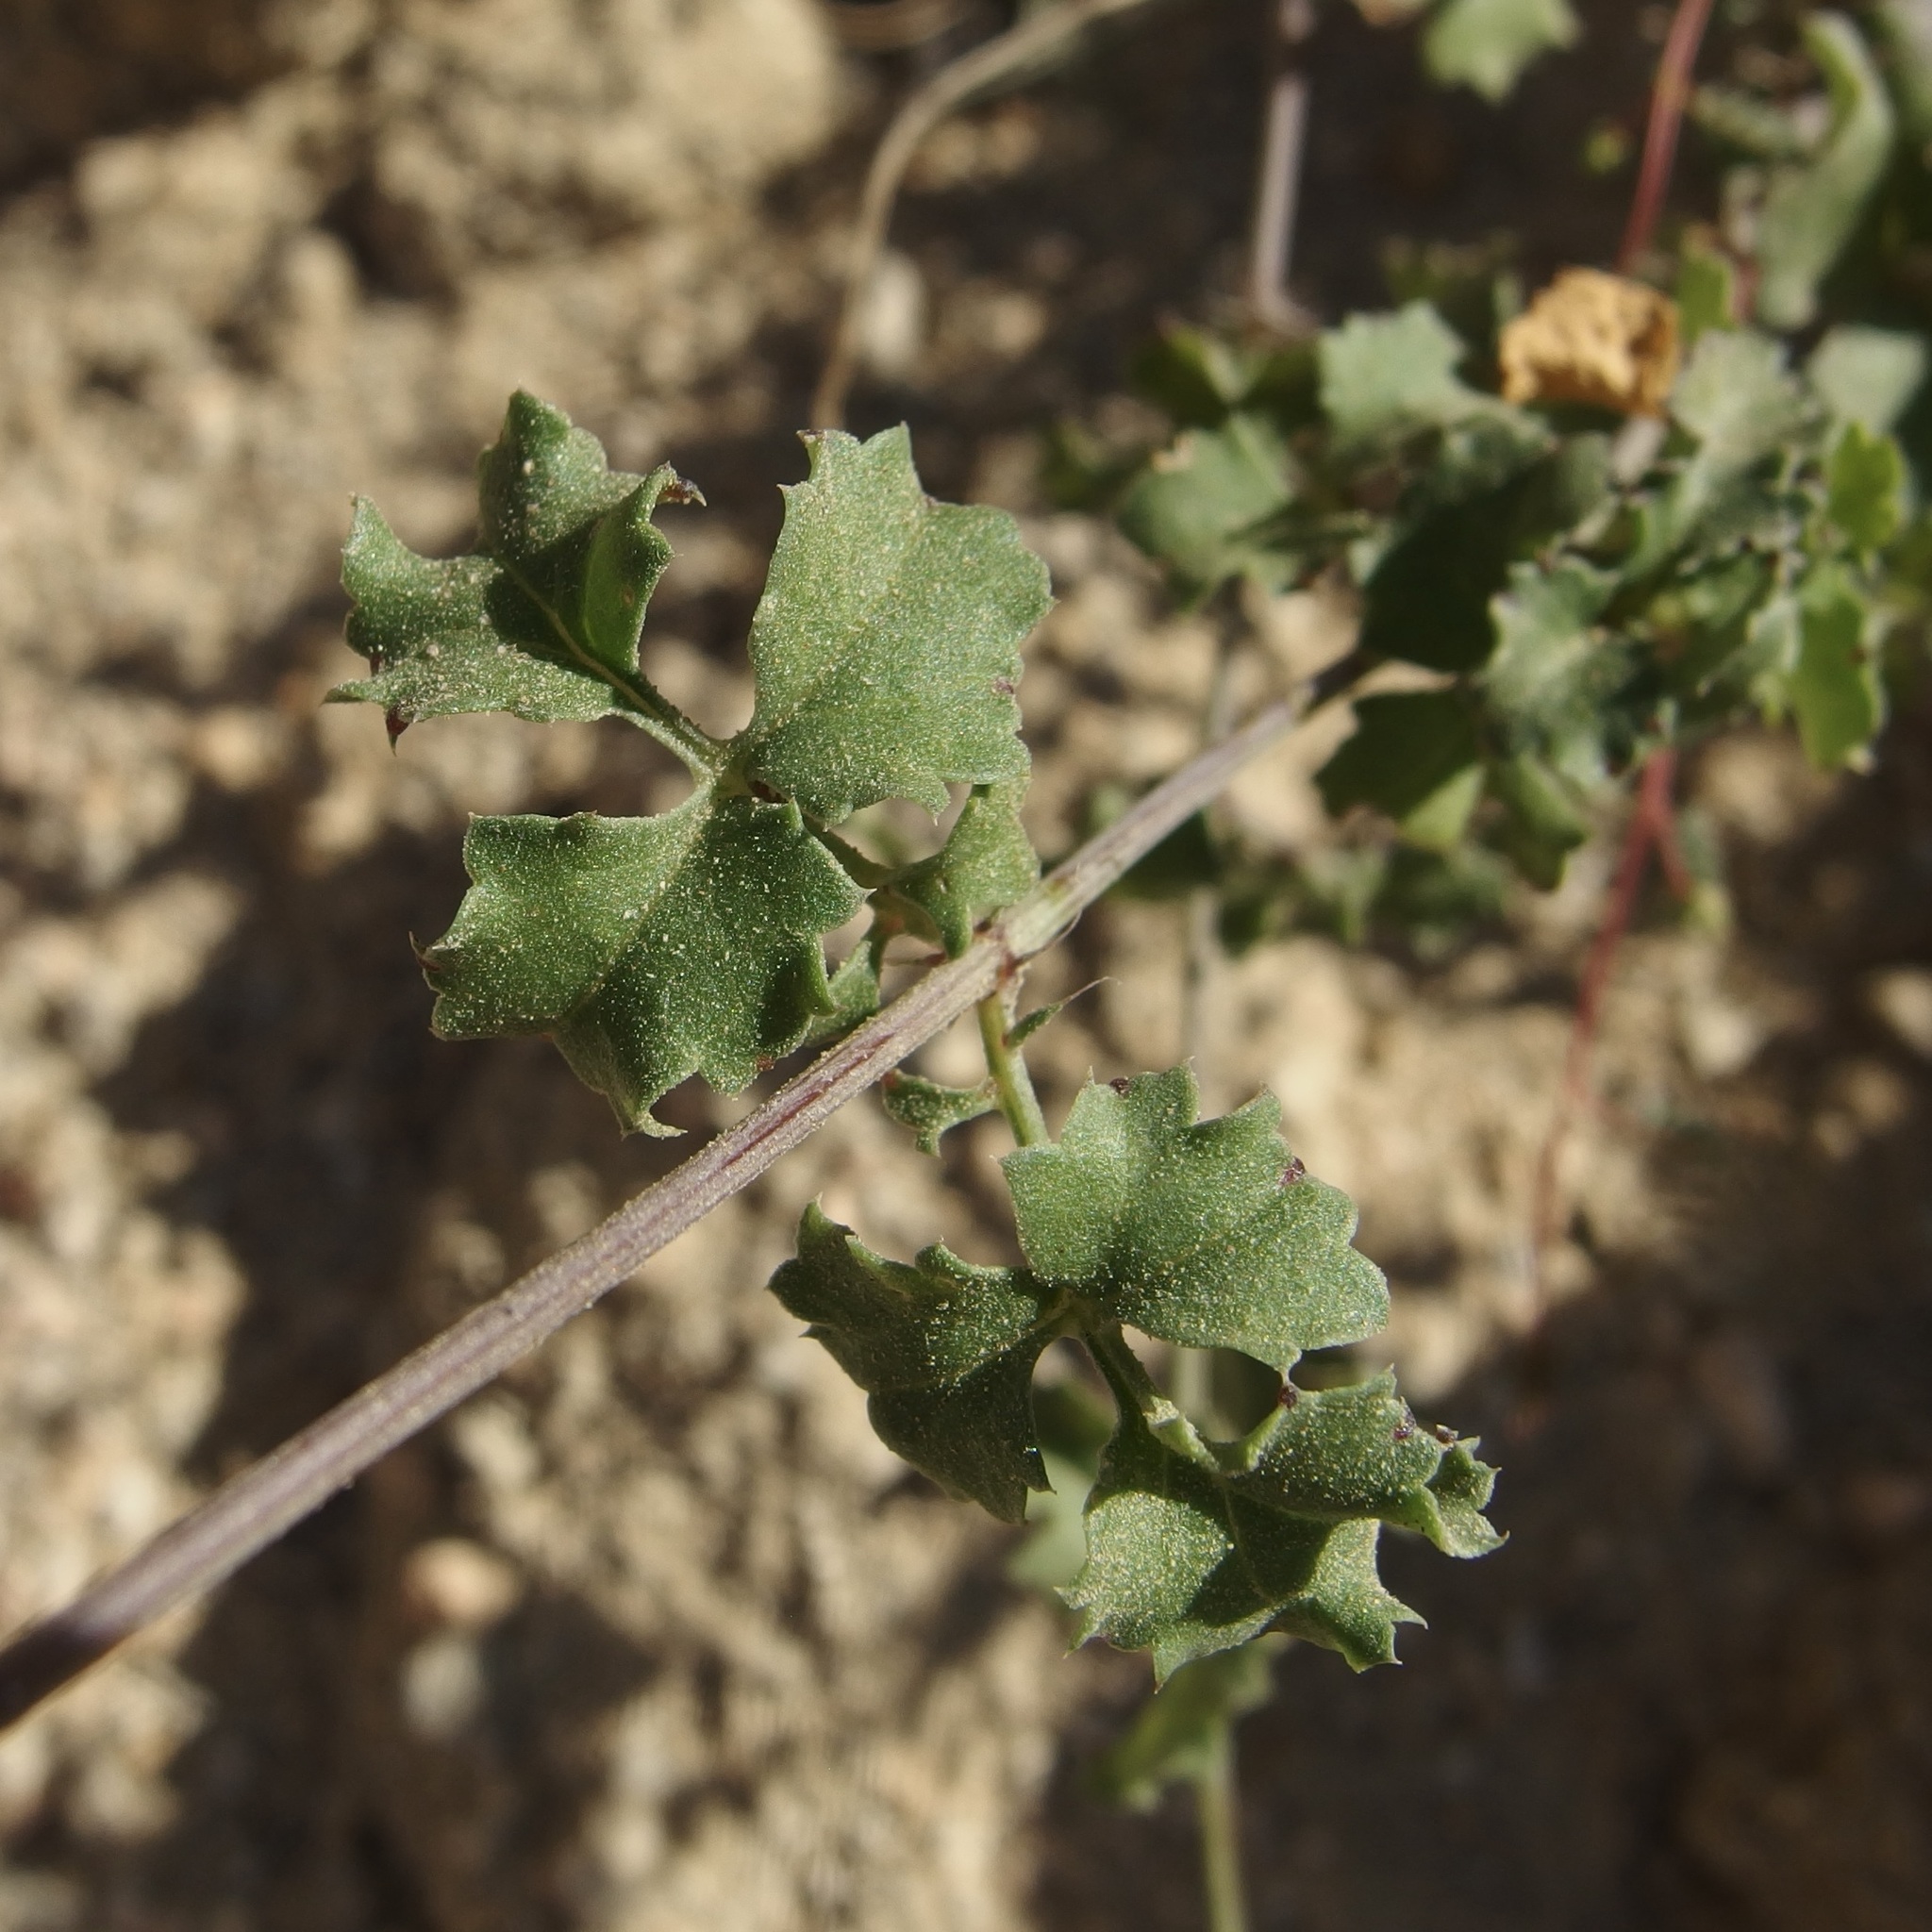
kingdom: Plantae
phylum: Tracheophyta
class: Magnoliopsida
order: Asterales
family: Asteraceae
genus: Adenophyllum
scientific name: Adenophyllum speciosum
